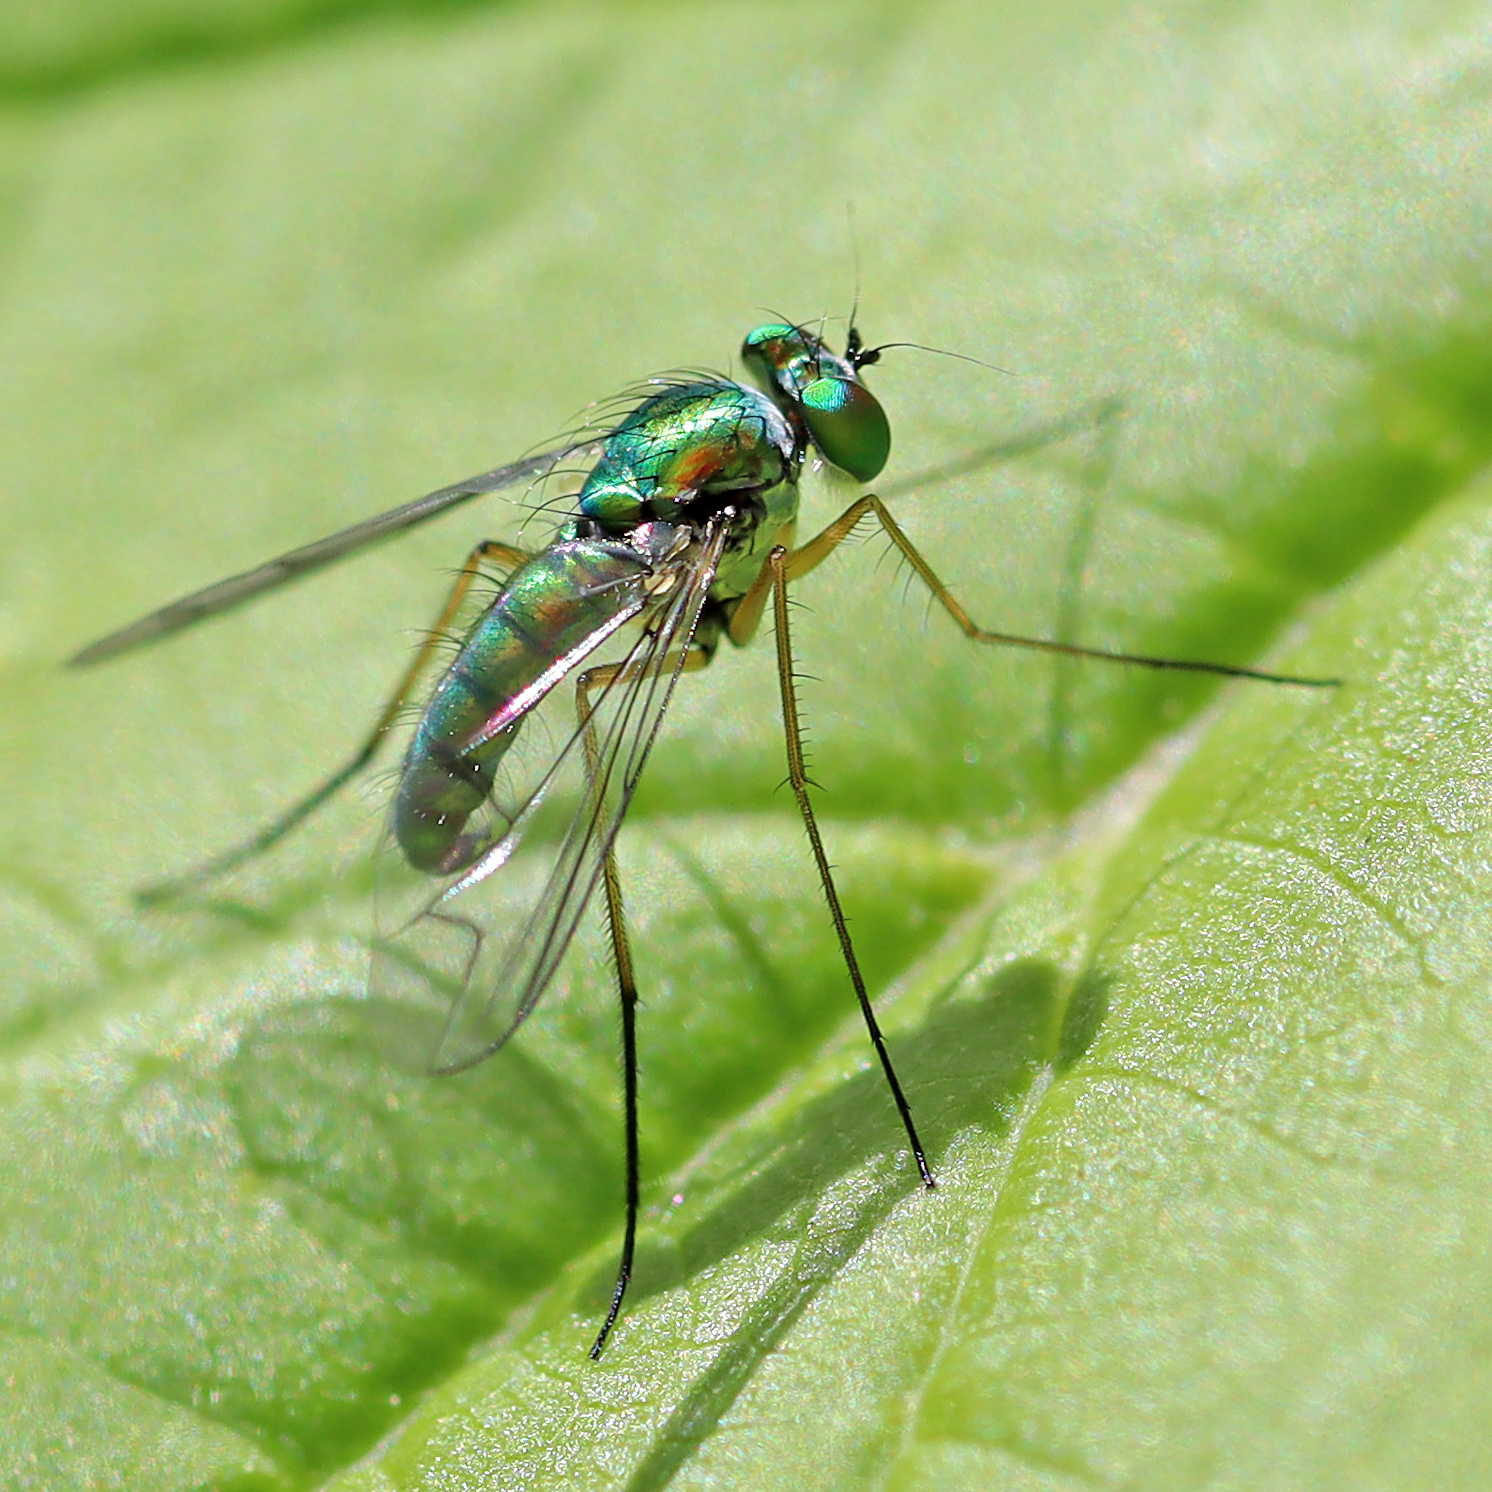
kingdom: Animalia
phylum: Arthropoda
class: Insecta
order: Diptera
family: Dolichopodidae
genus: Condylostylus
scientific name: Condylostylus sipho
